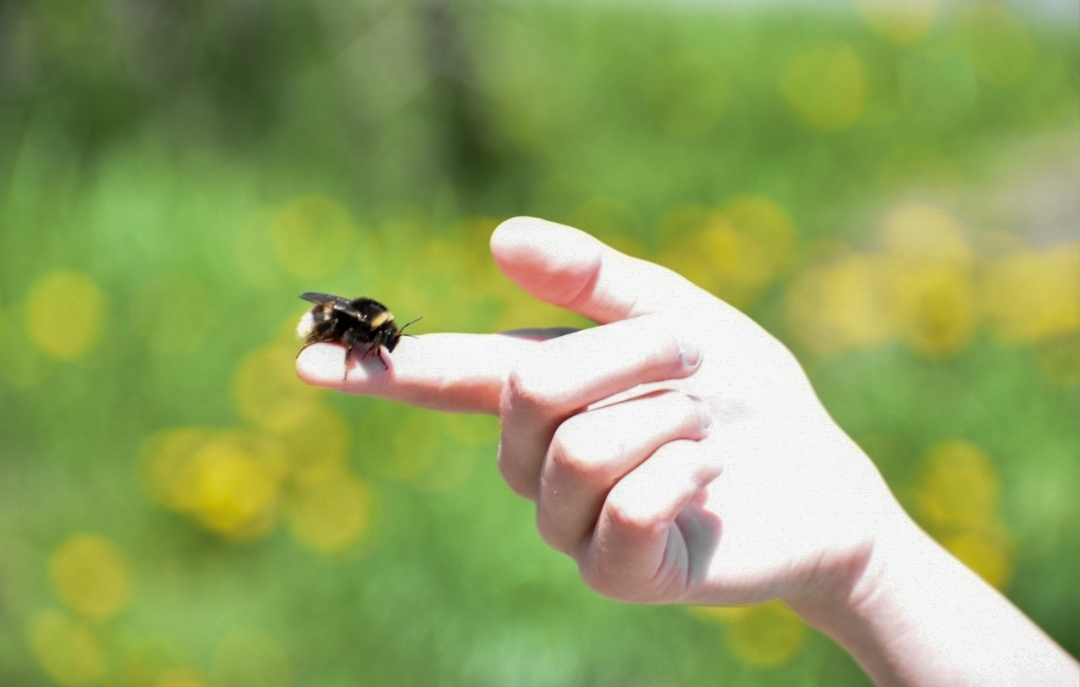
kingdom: Animalia
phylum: Arthropoda
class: Insecta
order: Hymenoptera
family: Apidae
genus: Bombus
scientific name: Bombus cryptarum
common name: Cryptic bumblebee
